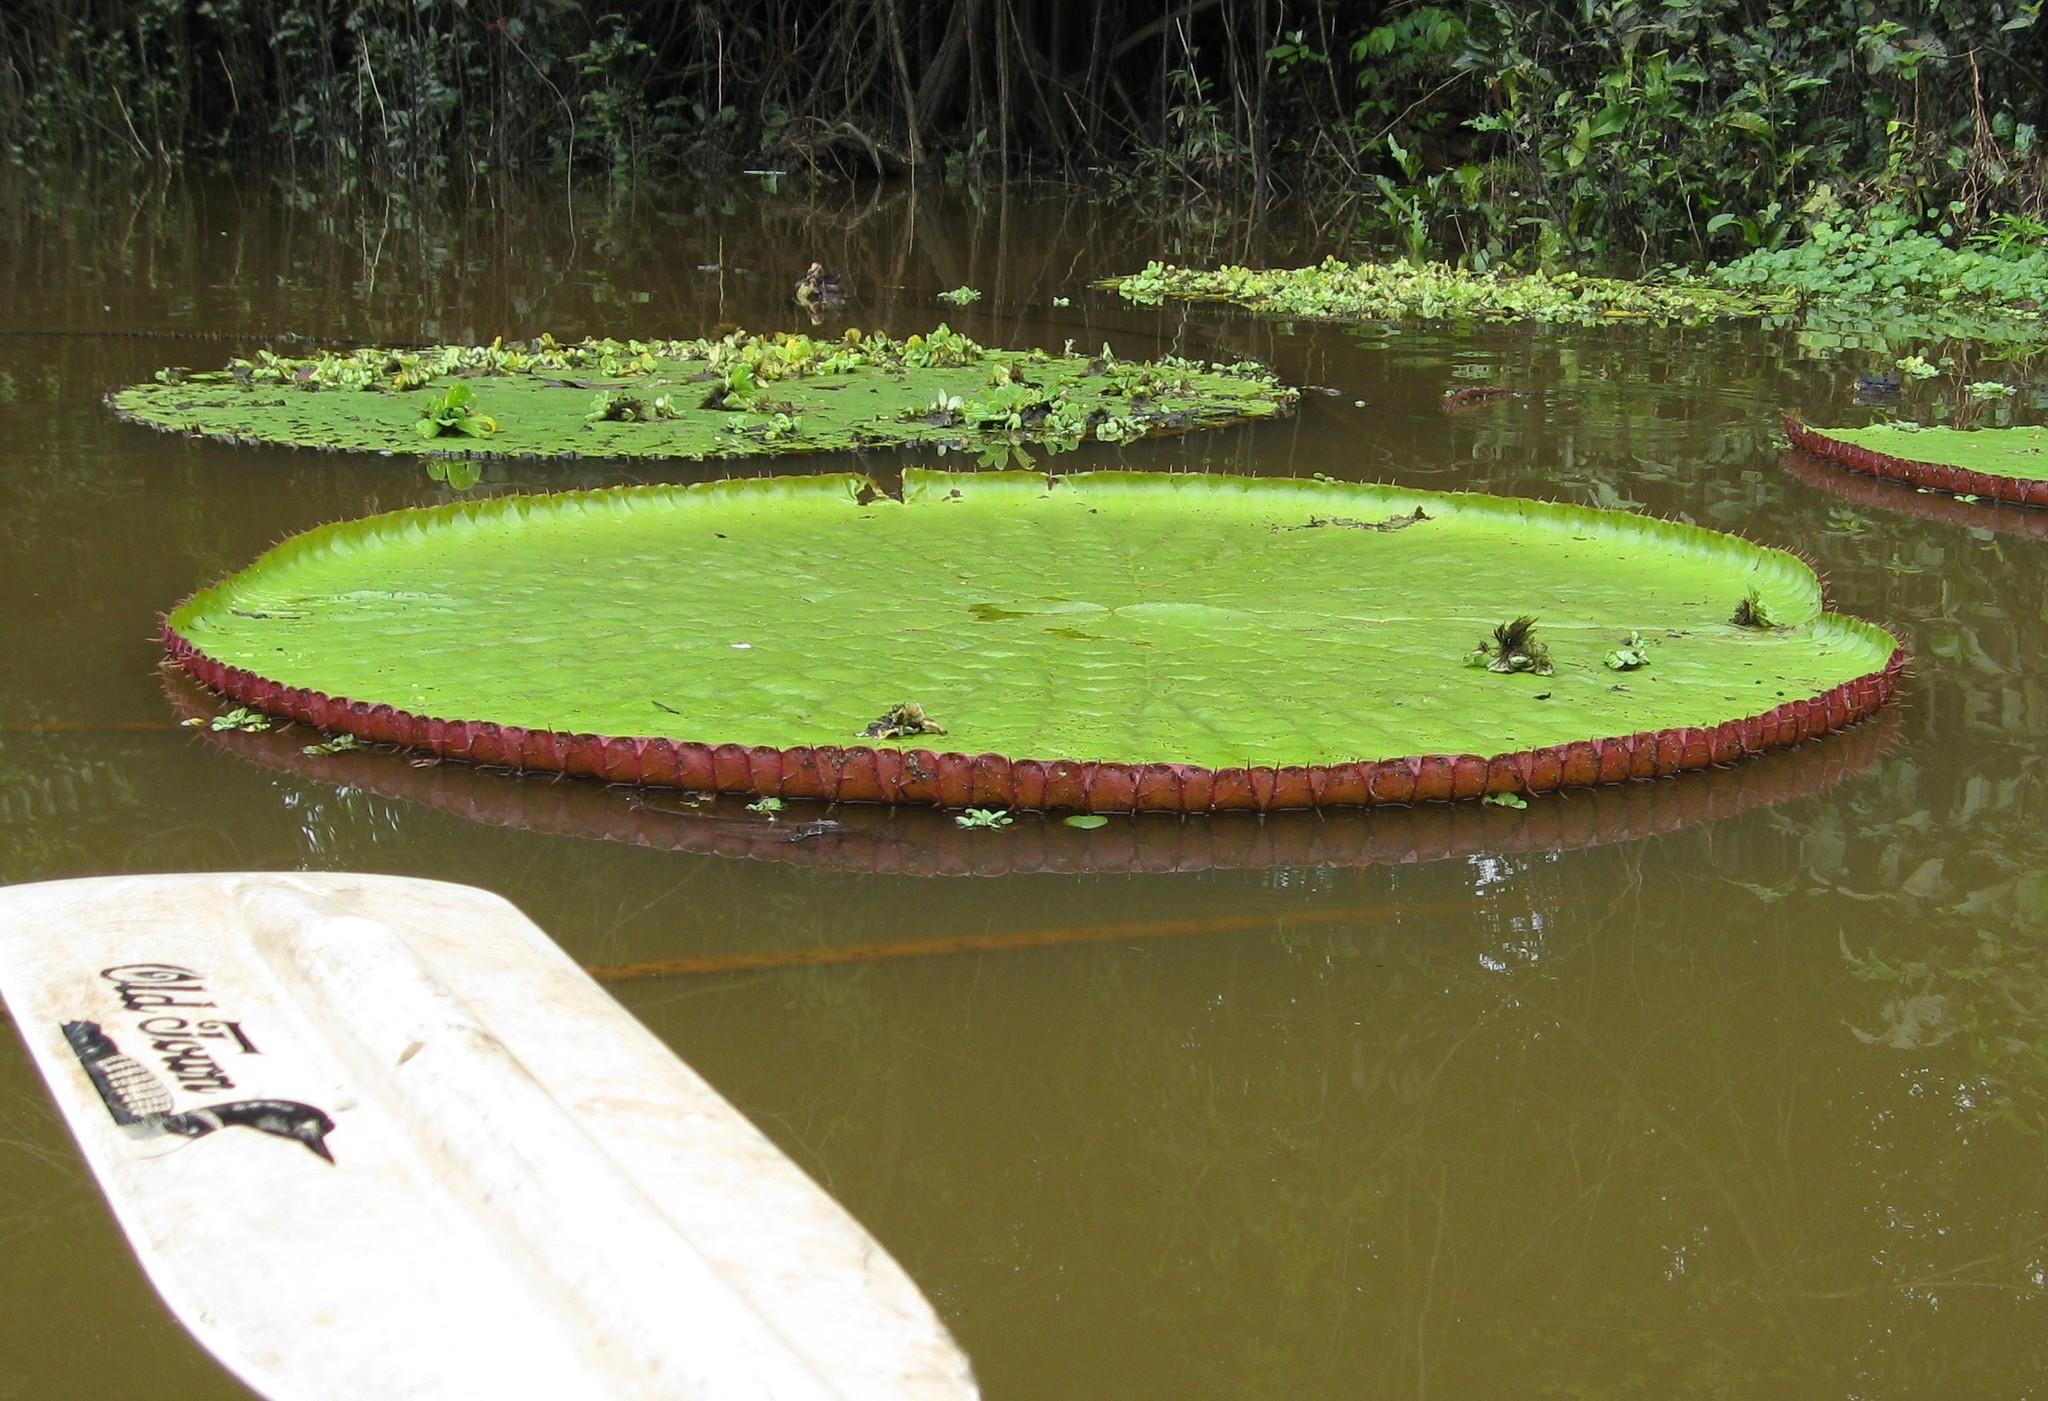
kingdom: Plantae
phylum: Tracheophyta
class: Magnoliopsida
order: Nymphaeales
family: Nymphaeaceae
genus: Victoria
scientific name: Victoria amazonica
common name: Amazon water-lily
